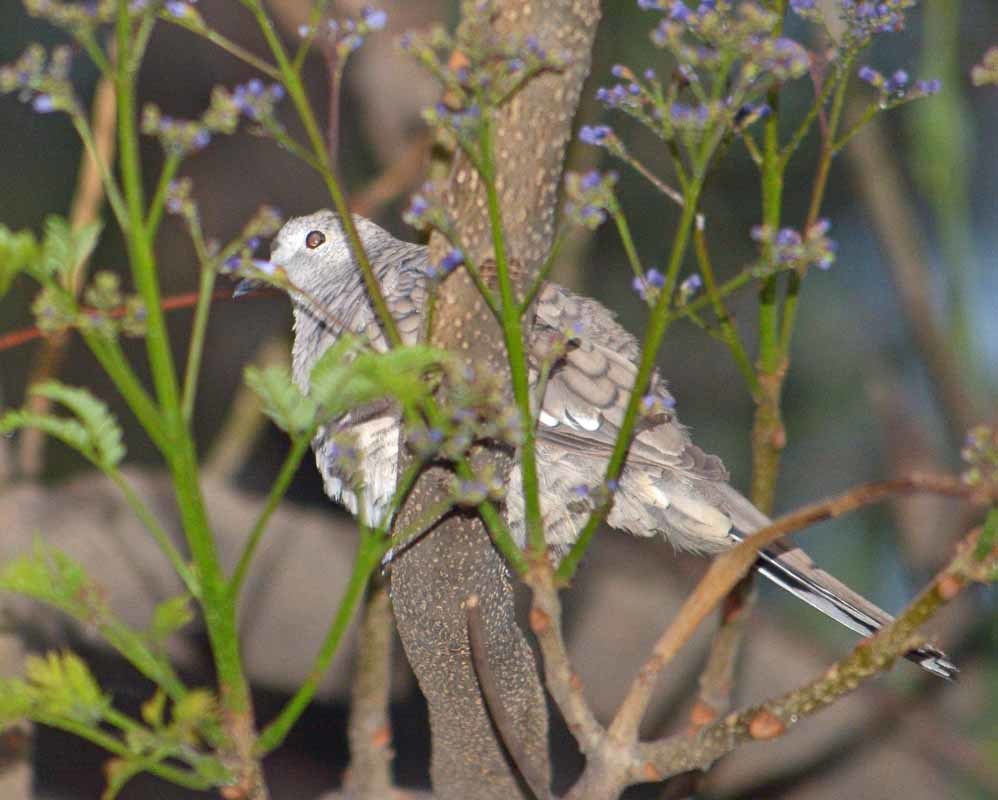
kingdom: Animalia
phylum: Chordata
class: Aves
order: Columbiformes
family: Columbidae
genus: Columbina
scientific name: Columbina inca
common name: Inca dove
